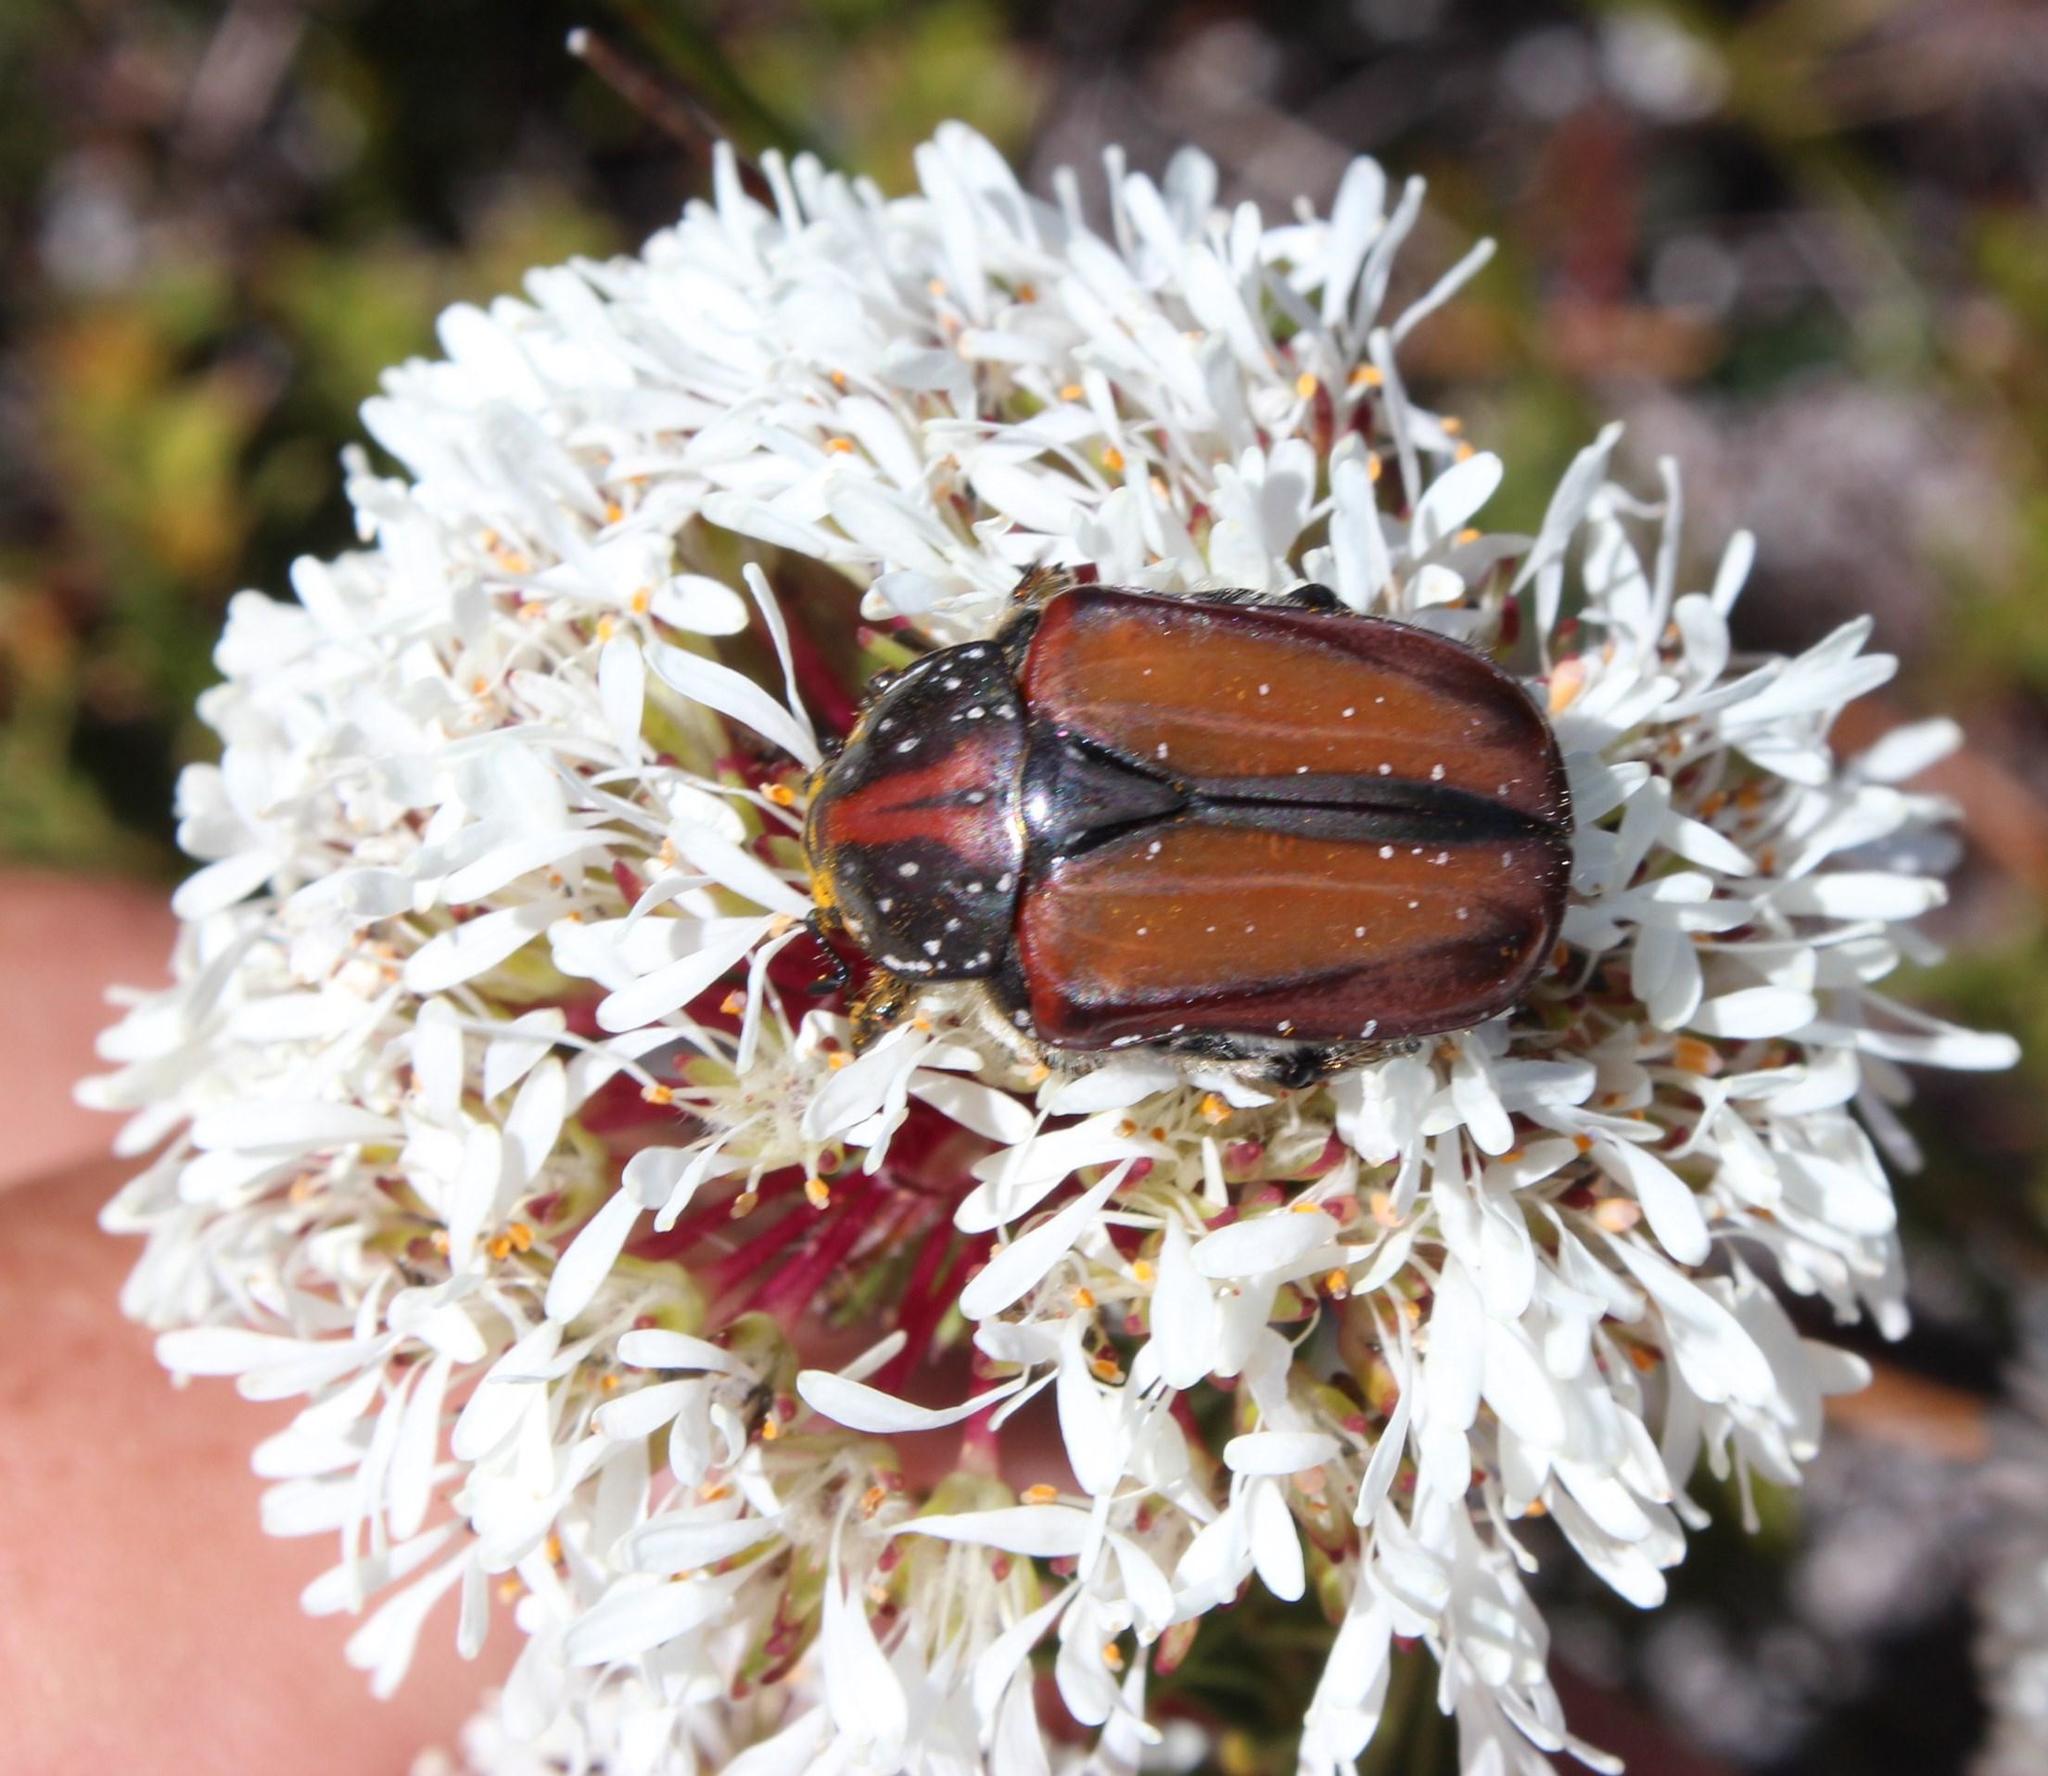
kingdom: Animalia
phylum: Arthropoda
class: Insecta
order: Coleoptera
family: Scarabaeidae
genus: Trichostetha
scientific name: Trichostetha capensis
